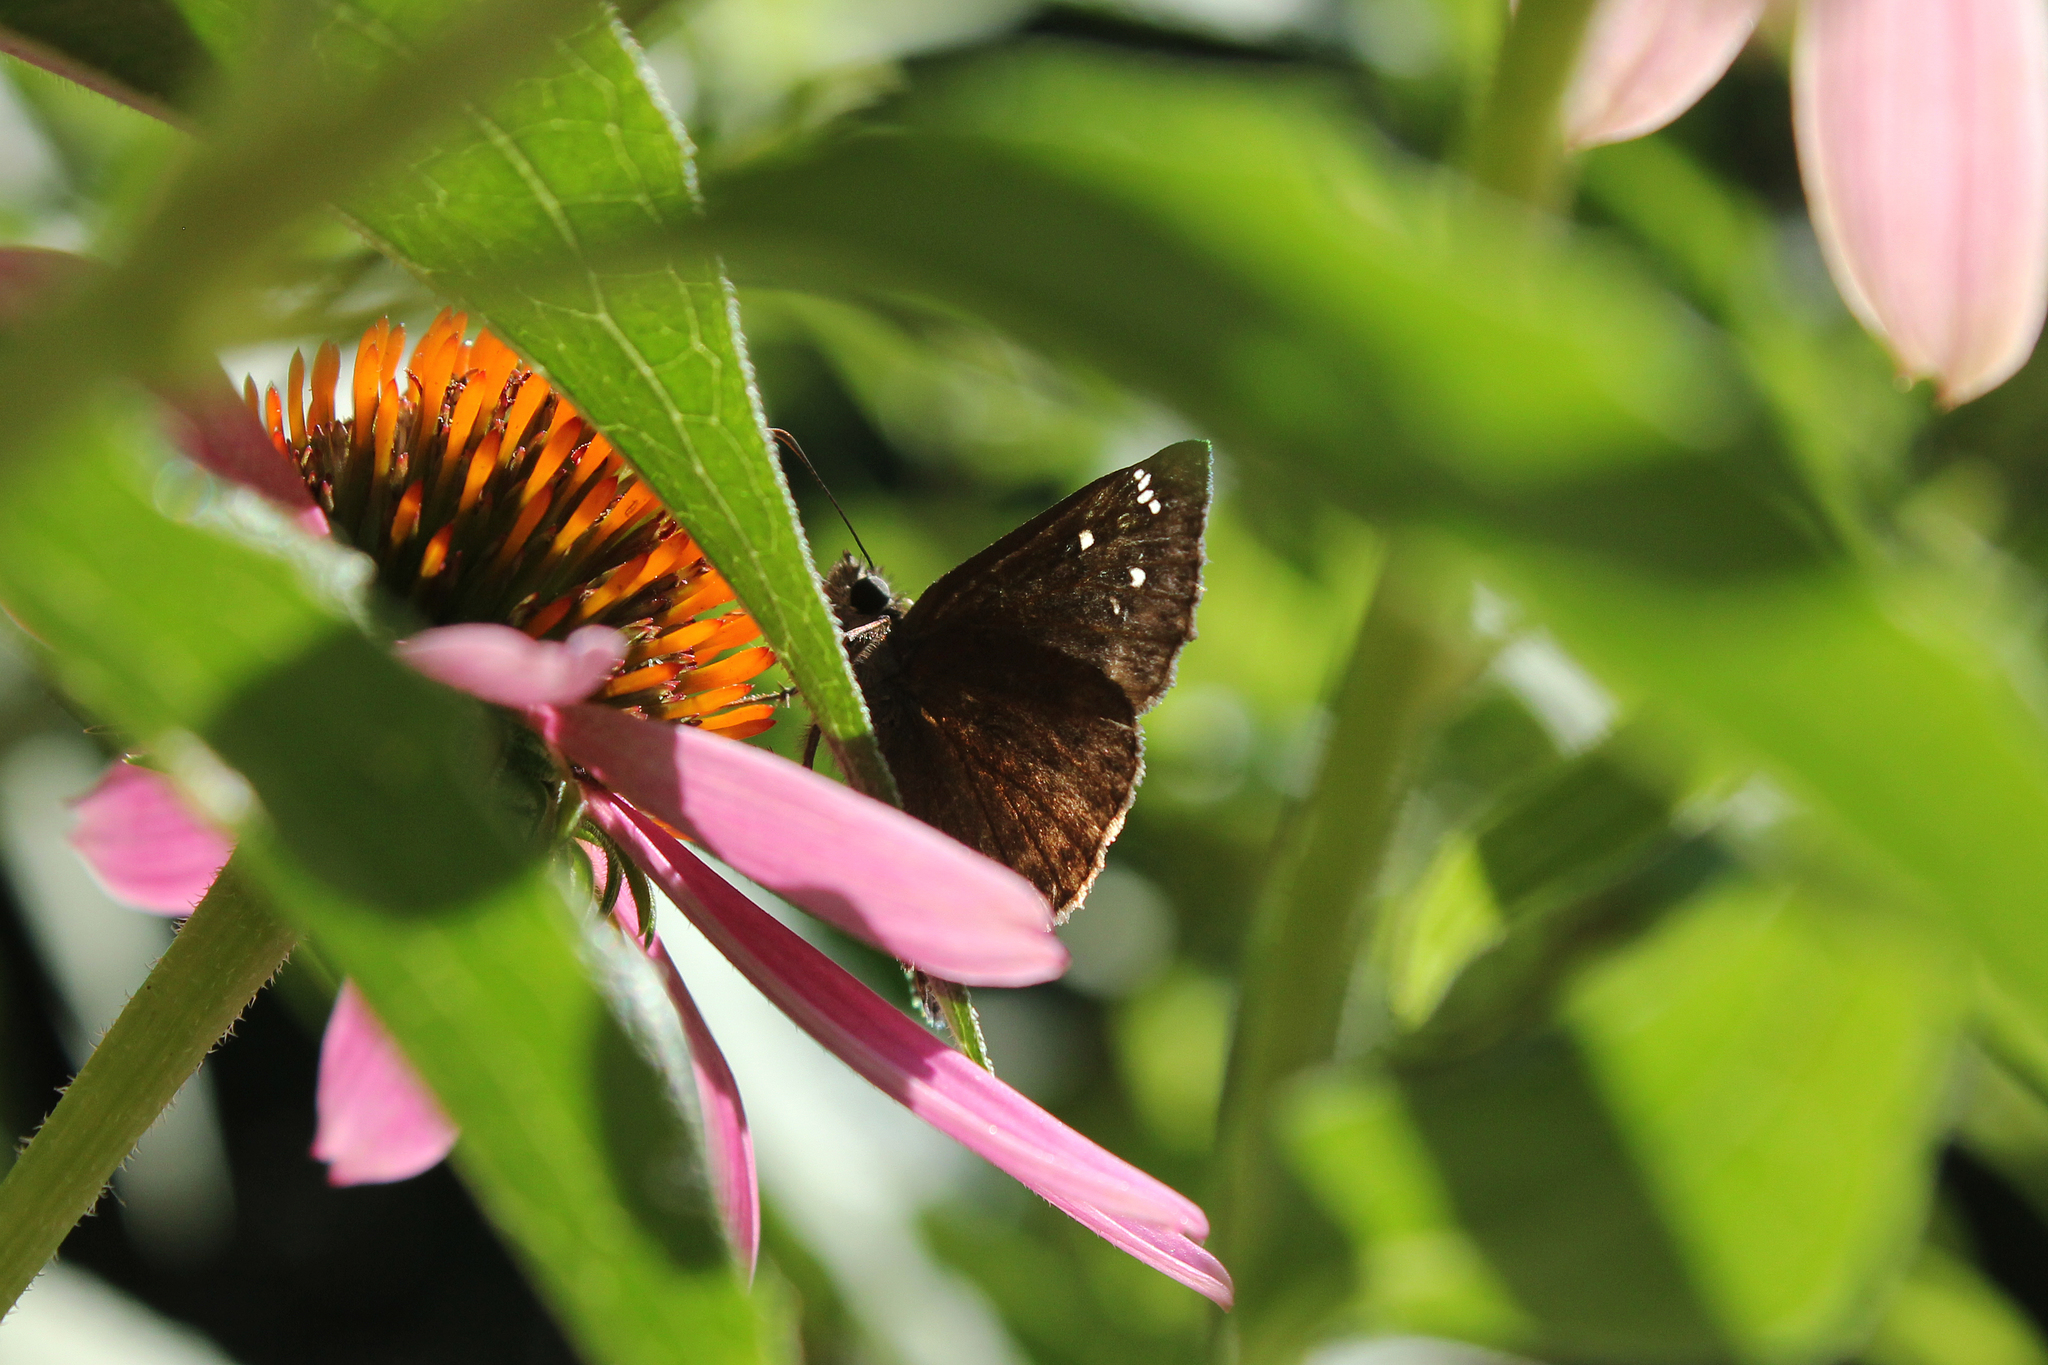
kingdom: Animalia
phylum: Arthropoda
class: Insecta
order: Lepidoptera
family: Hesperiidae
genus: Erynnis
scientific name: Erynnis horatius
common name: Horace's duskywing
